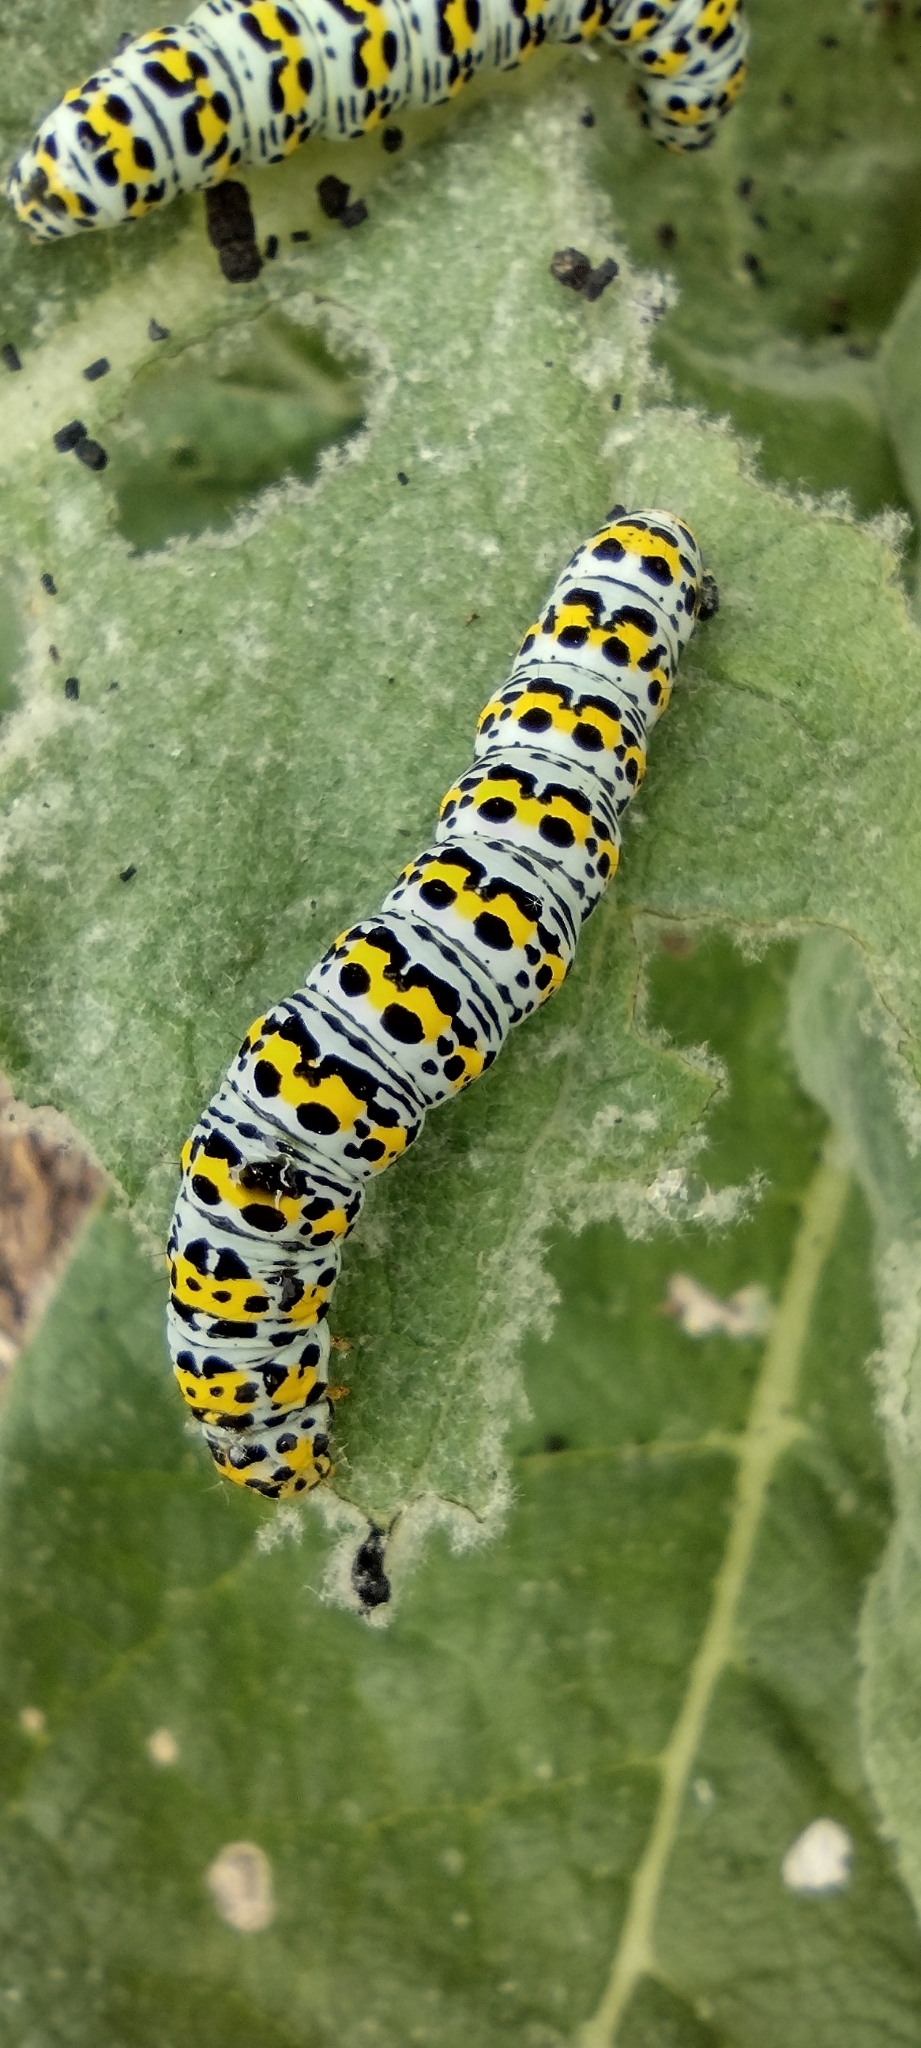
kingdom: Animalia
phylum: Arthropoda
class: Insecta
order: Lepidoptera
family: Noctuidae
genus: Cucullia
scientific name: Cucullia verbasci
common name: Mullein
